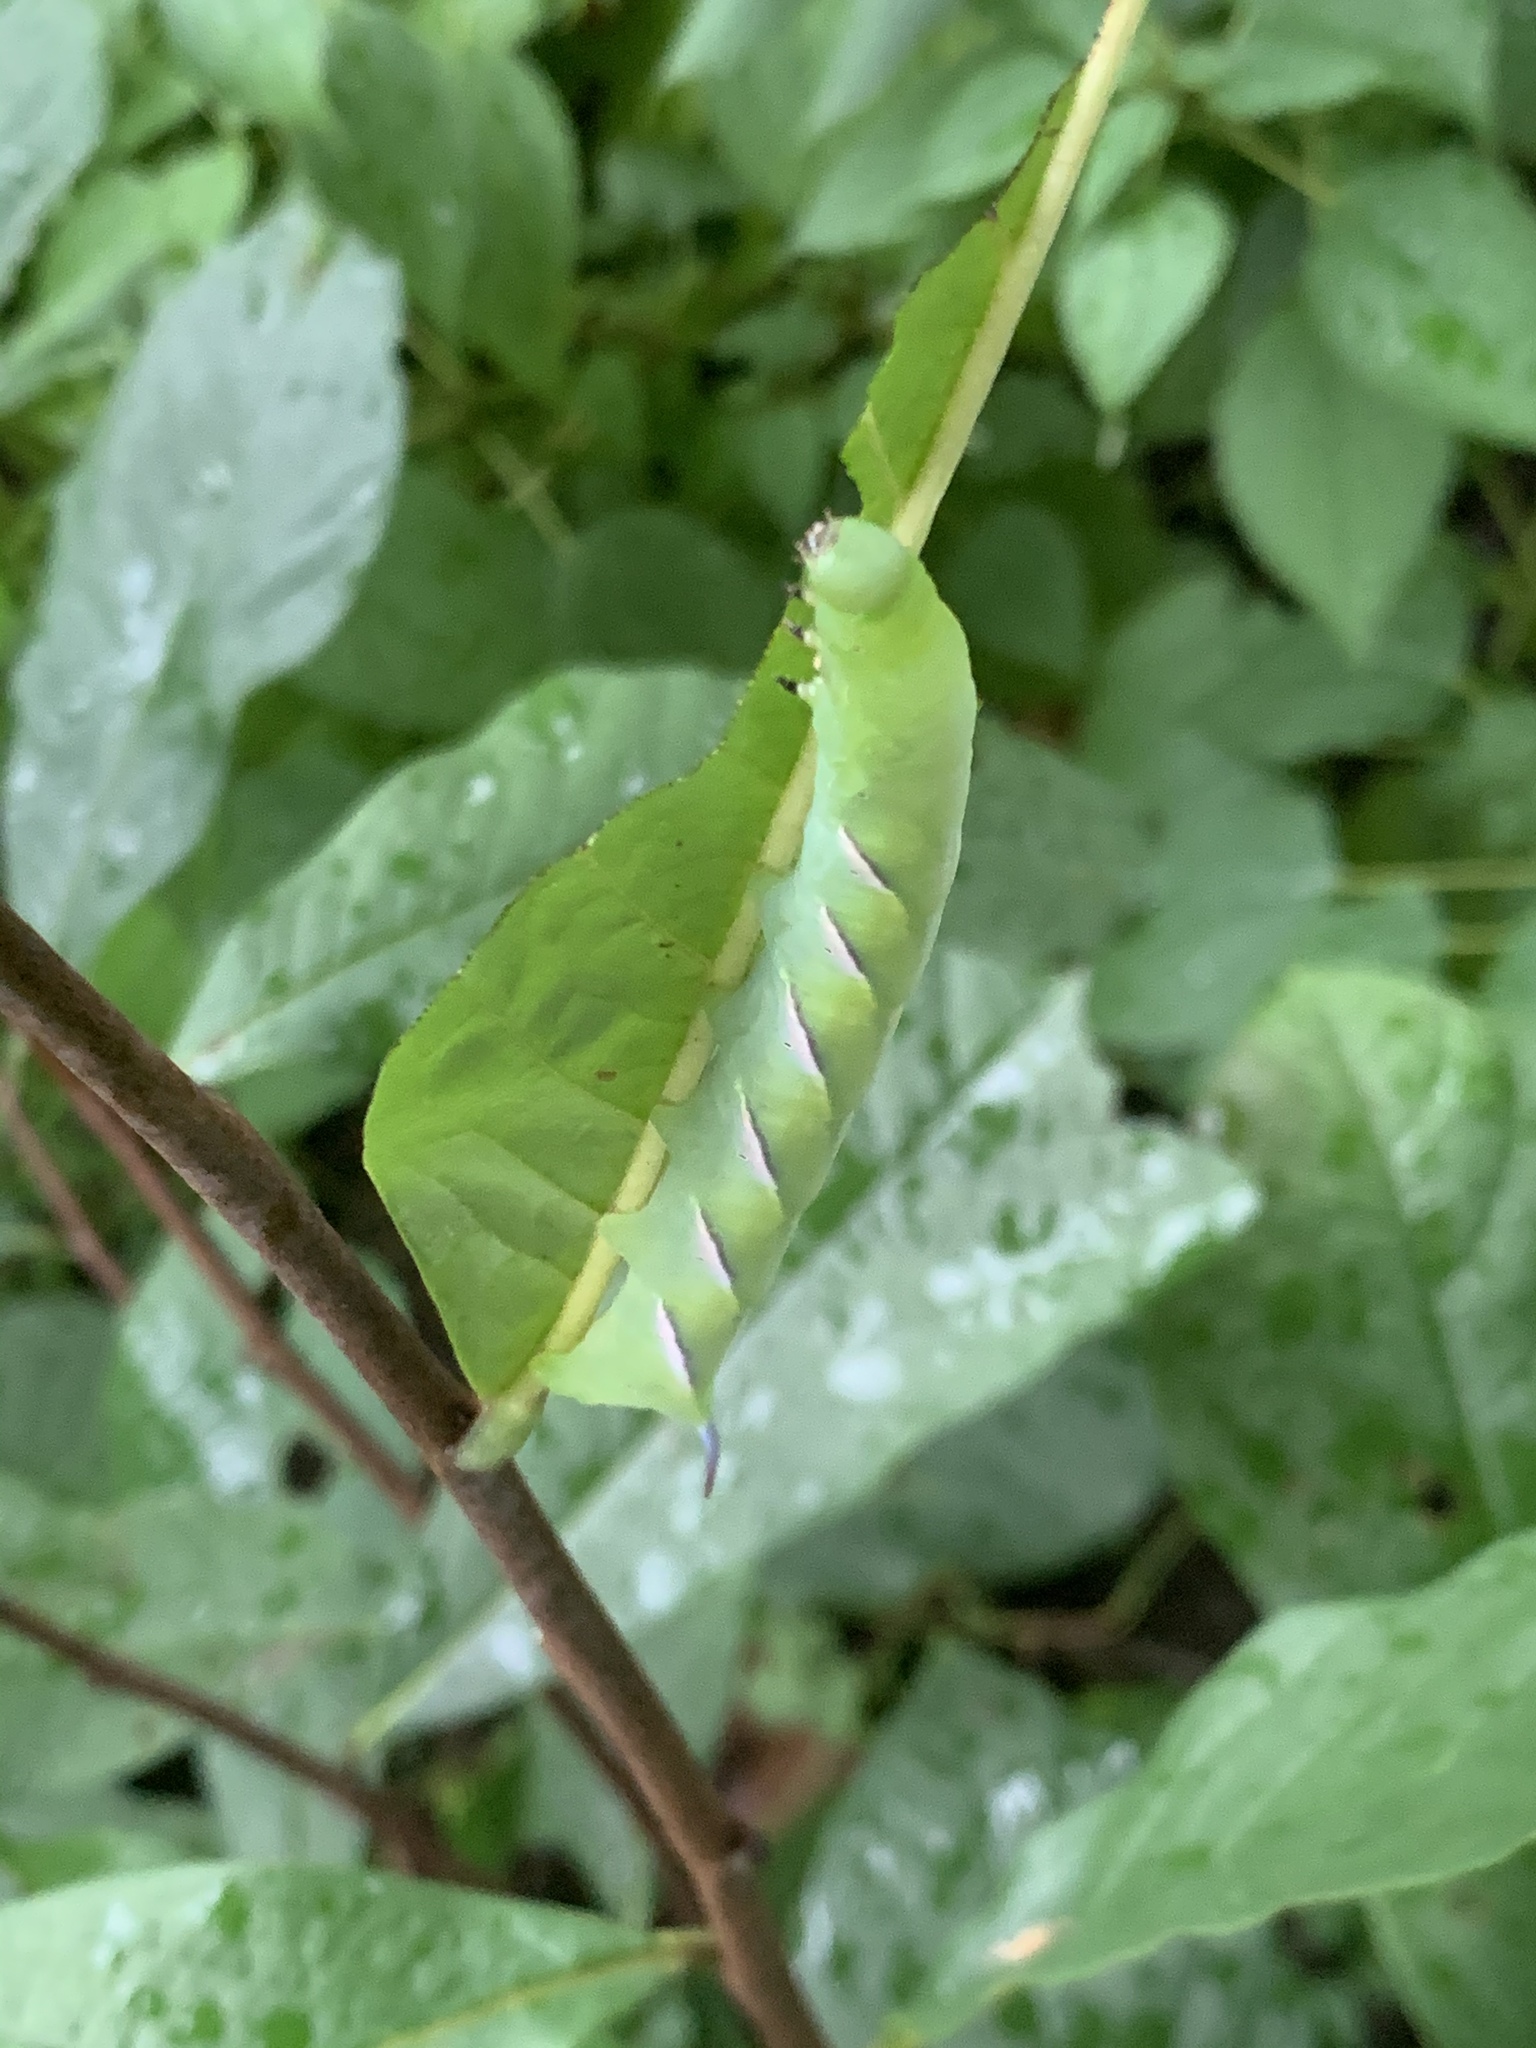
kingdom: Animalia
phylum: Arthropoda
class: Insecta
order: Lepidoptera
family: Sphingidae
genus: Dolba
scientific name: Dolba hyloeus
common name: Pawpaw sphinx
